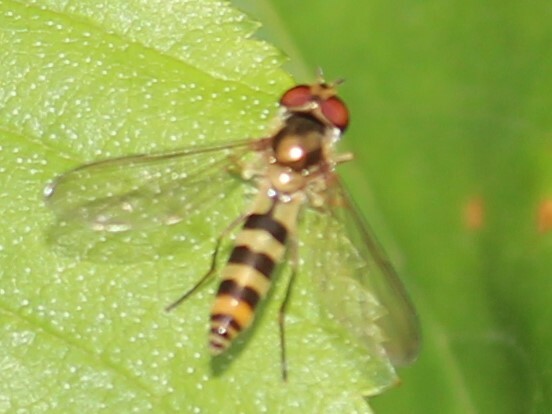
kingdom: Animalia
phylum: Arthropoda
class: Insecta
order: Diptera
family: Syrphidae
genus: Meliscaeva
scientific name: Meliscaeva cinctella
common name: American thintail fly
